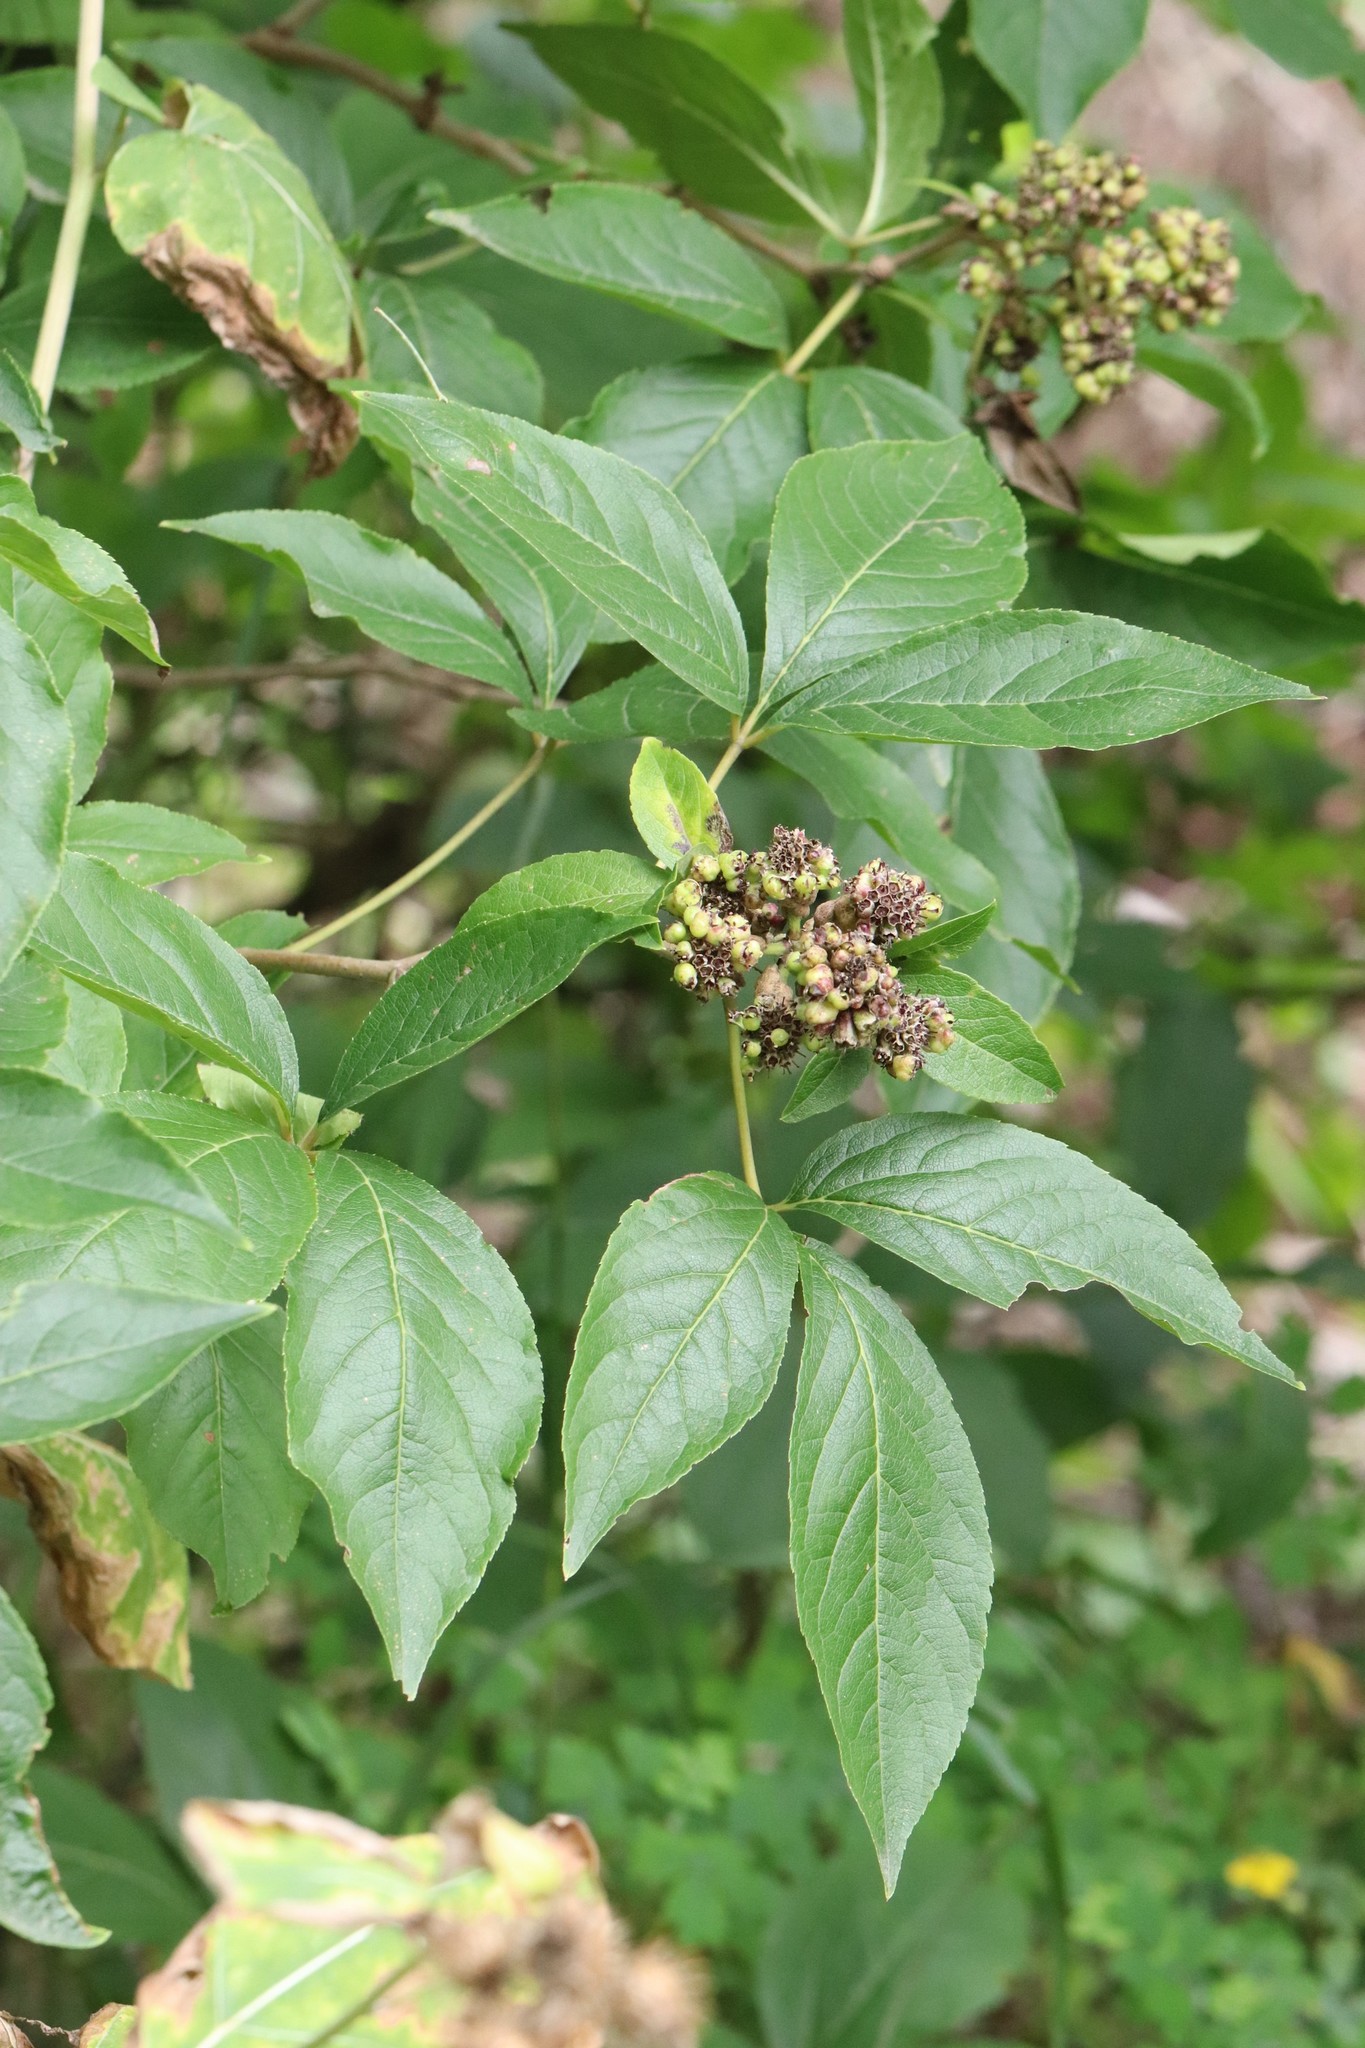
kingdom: Plantae
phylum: Tracheophyta
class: Magnoliopsida
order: Apiales
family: Araliaceae
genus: Eleutherococcus
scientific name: Eleutherococcus sessiliflorus
